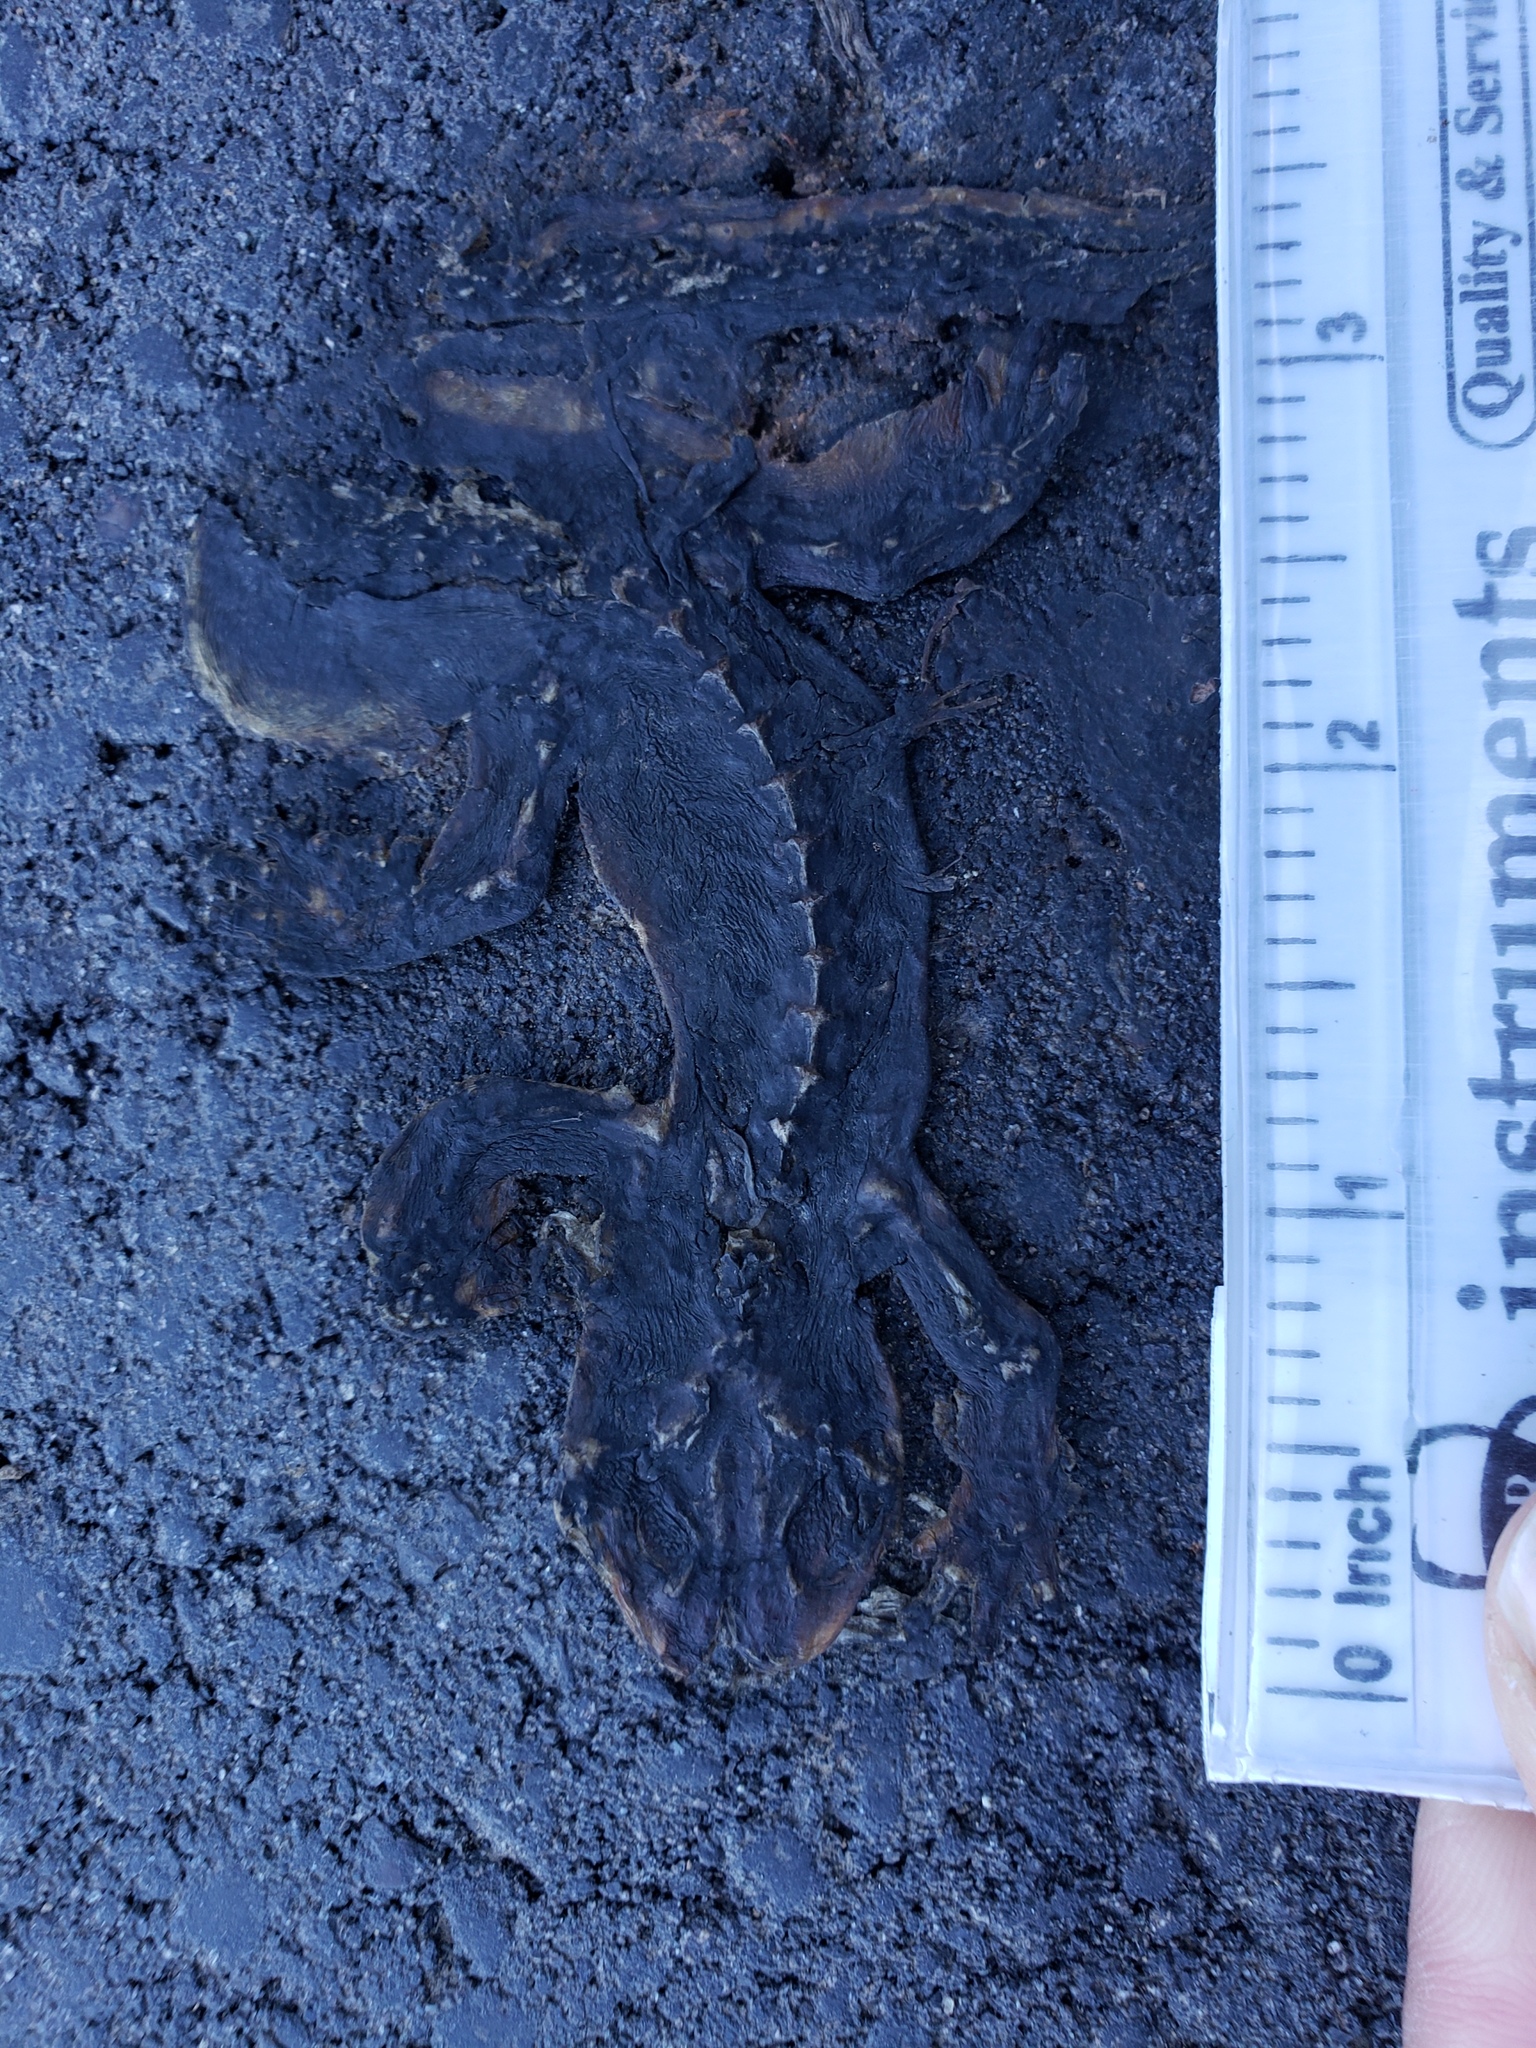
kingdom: Animalia
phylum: Chordata
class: Amphibia
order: Caudata
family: Salamandridae
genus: Taricha
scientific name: Taricha
